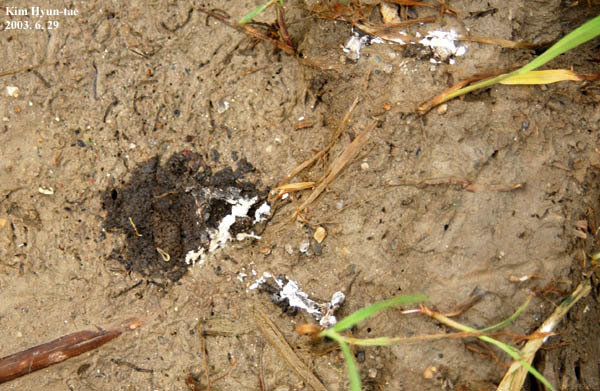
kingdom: Animalia
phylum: Chordata
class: Aves
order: Charadriiformes
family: Rostratulidae
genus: Rostratula
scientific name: Rostratula benghalensis
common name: Greater painted-snipe
